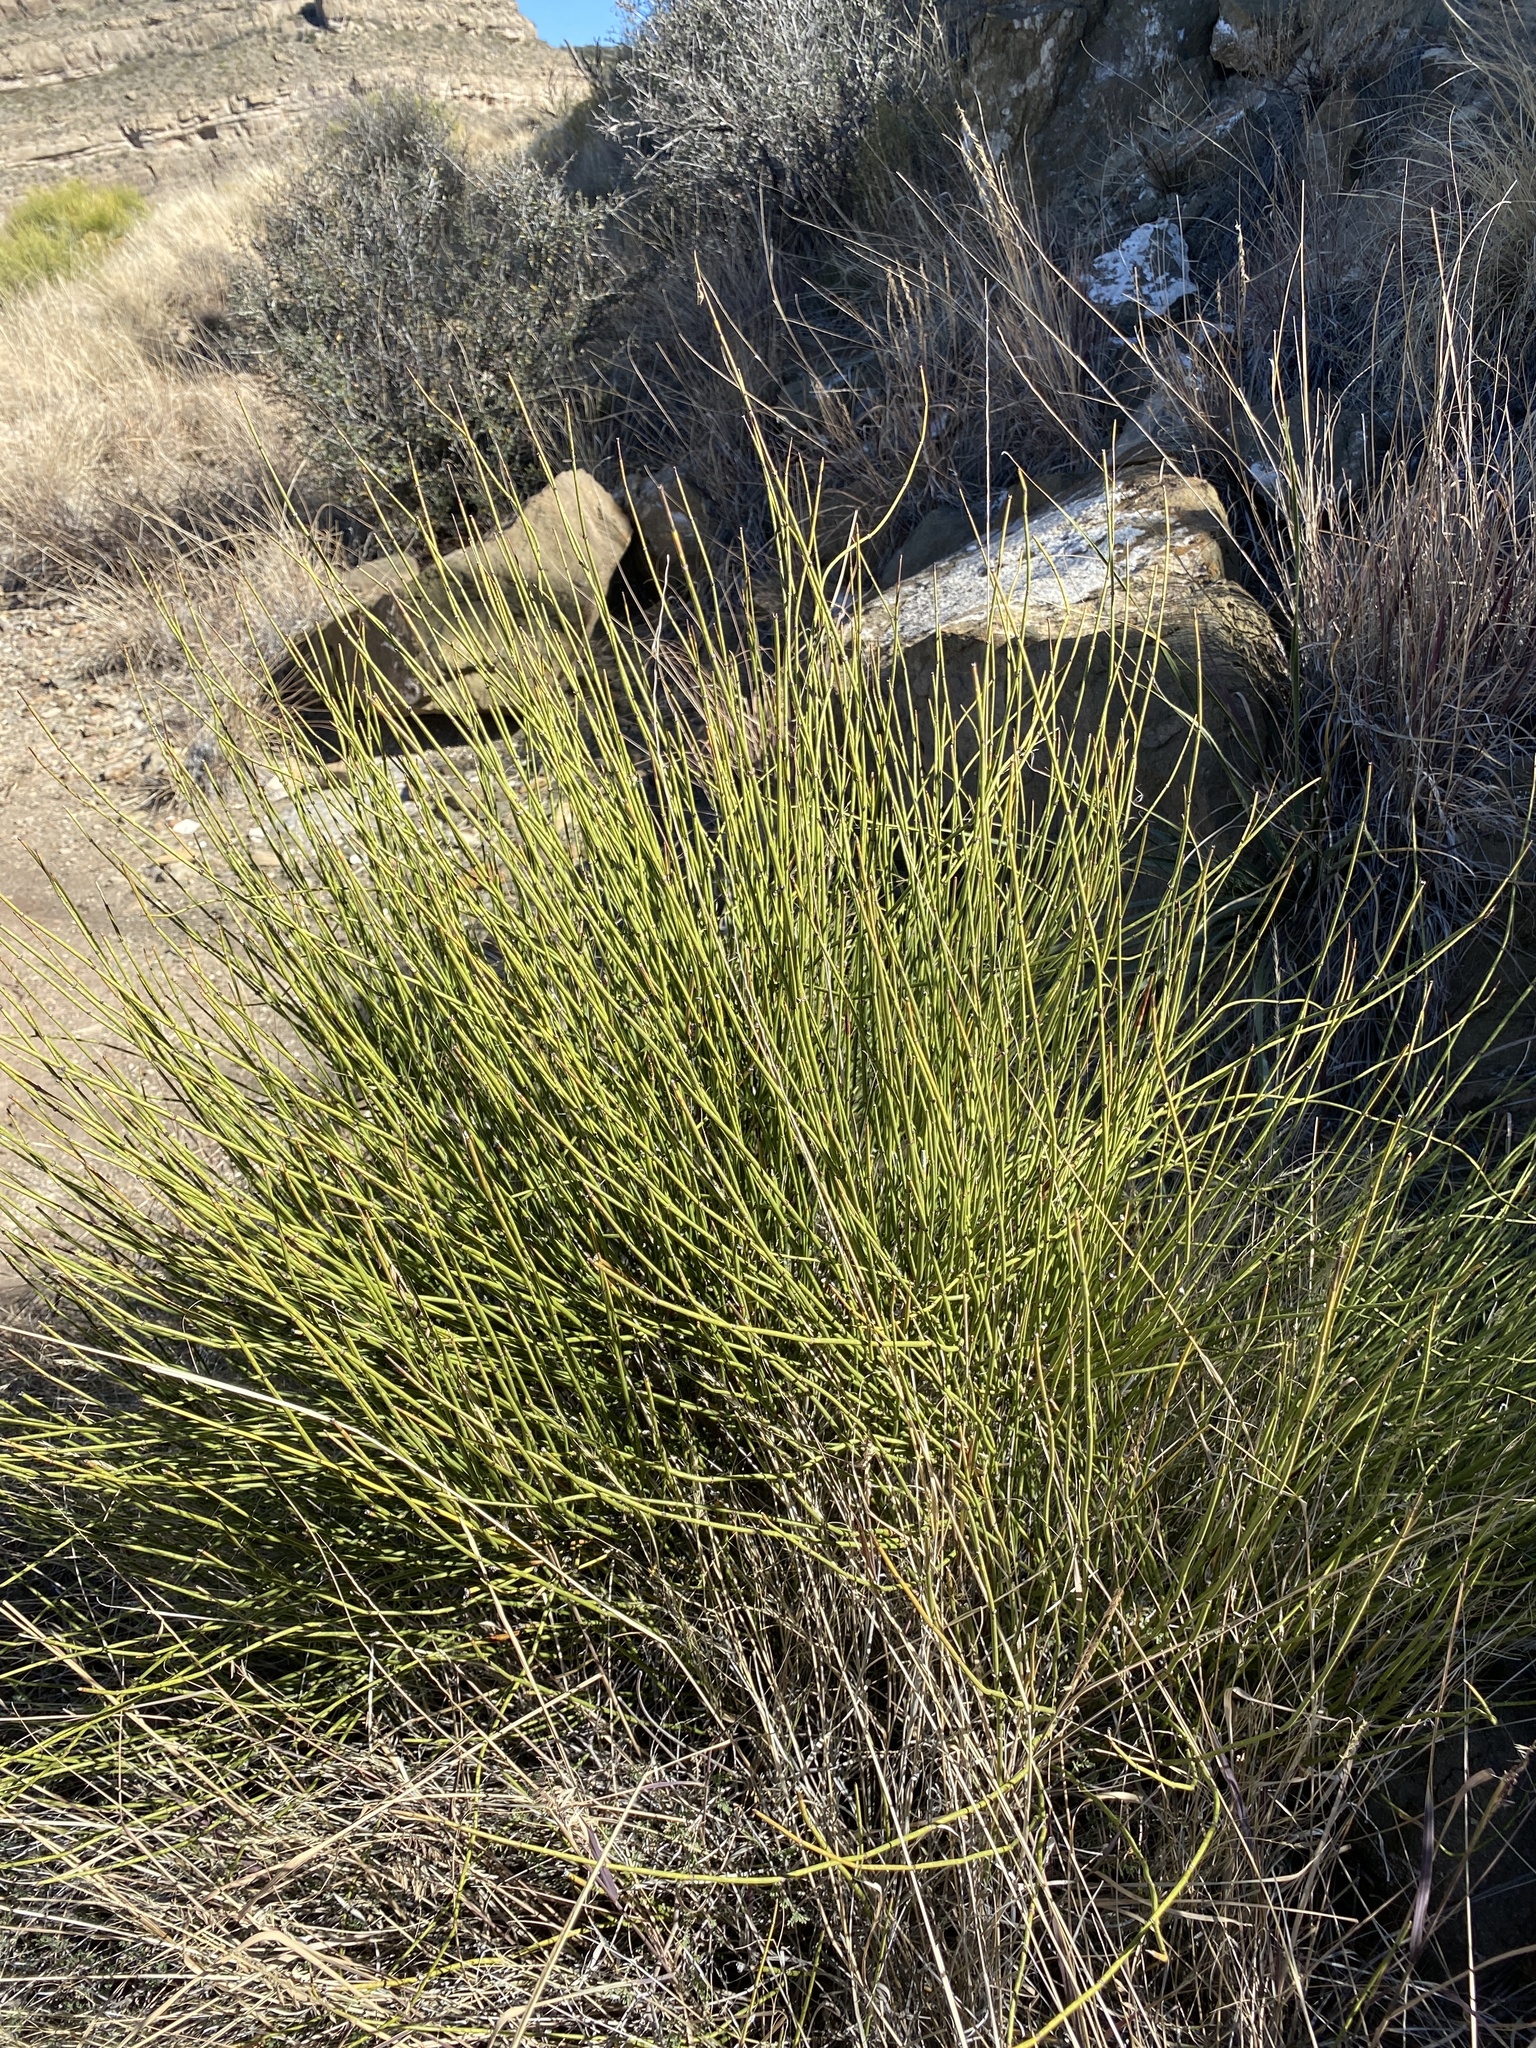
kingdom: Plantae
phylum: Tracheophyta
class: Gnetopsida
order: Ephedrales
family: Ephedraceae
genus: Ephedra
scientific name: Ephedra trifurca
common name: Mexican-tea
